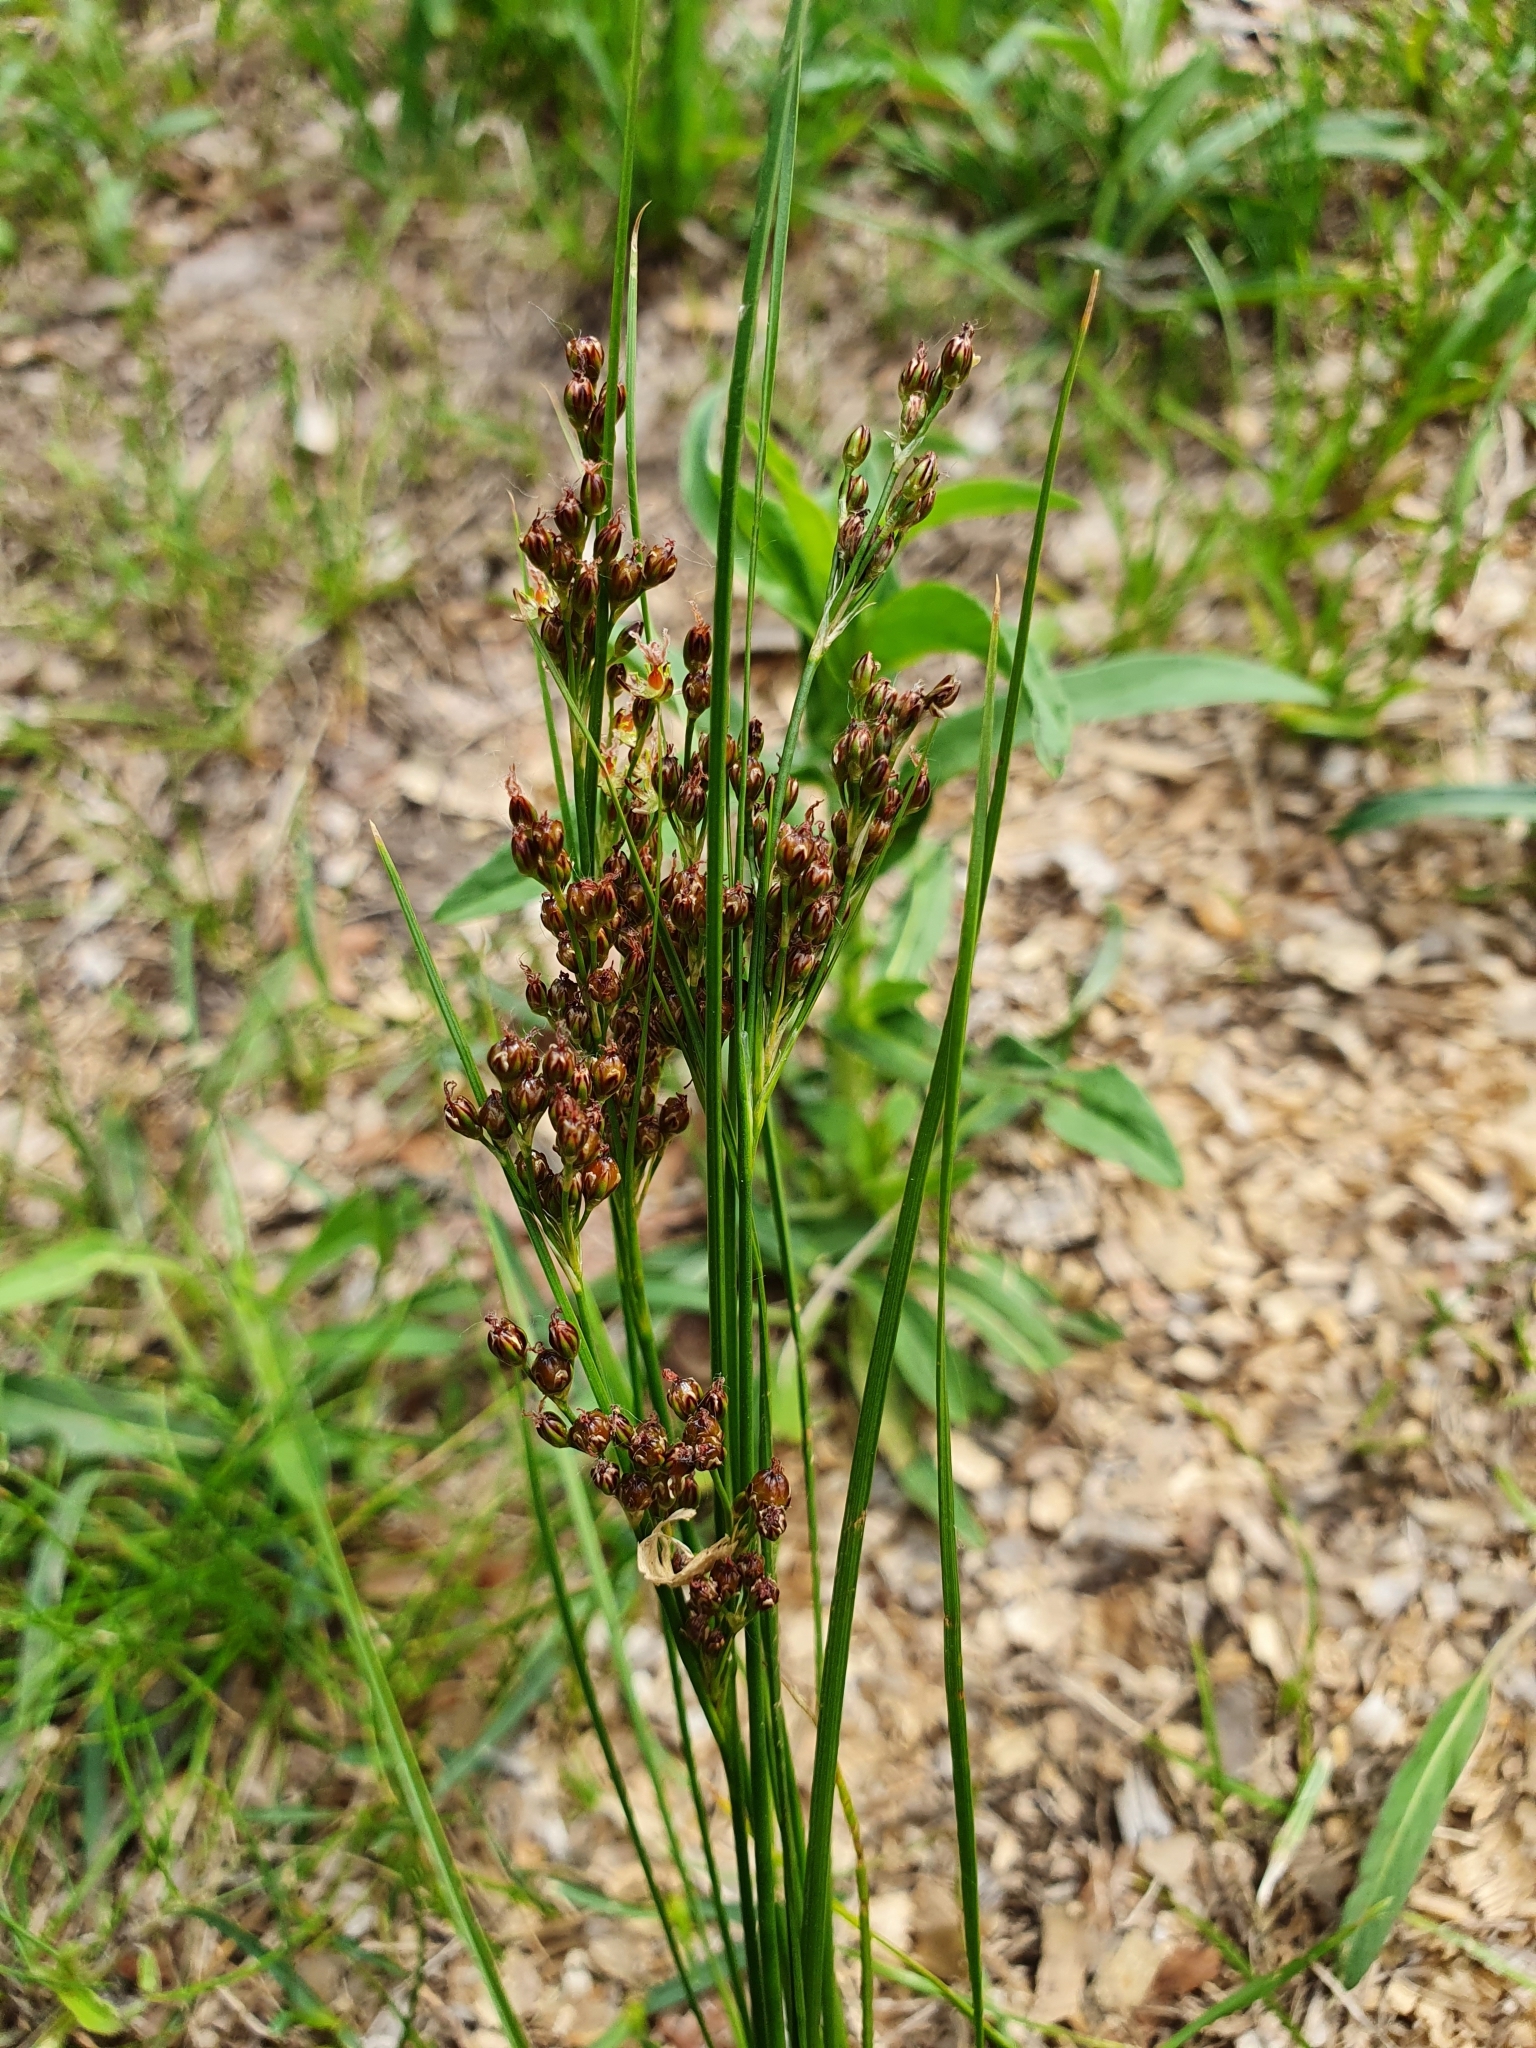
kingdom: Plantae
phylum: Tracheophyta
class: Liliopsida
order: Poales
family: Juncaceae
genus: Juncus
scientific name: Juncus compressus
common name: Round-fruited rush
